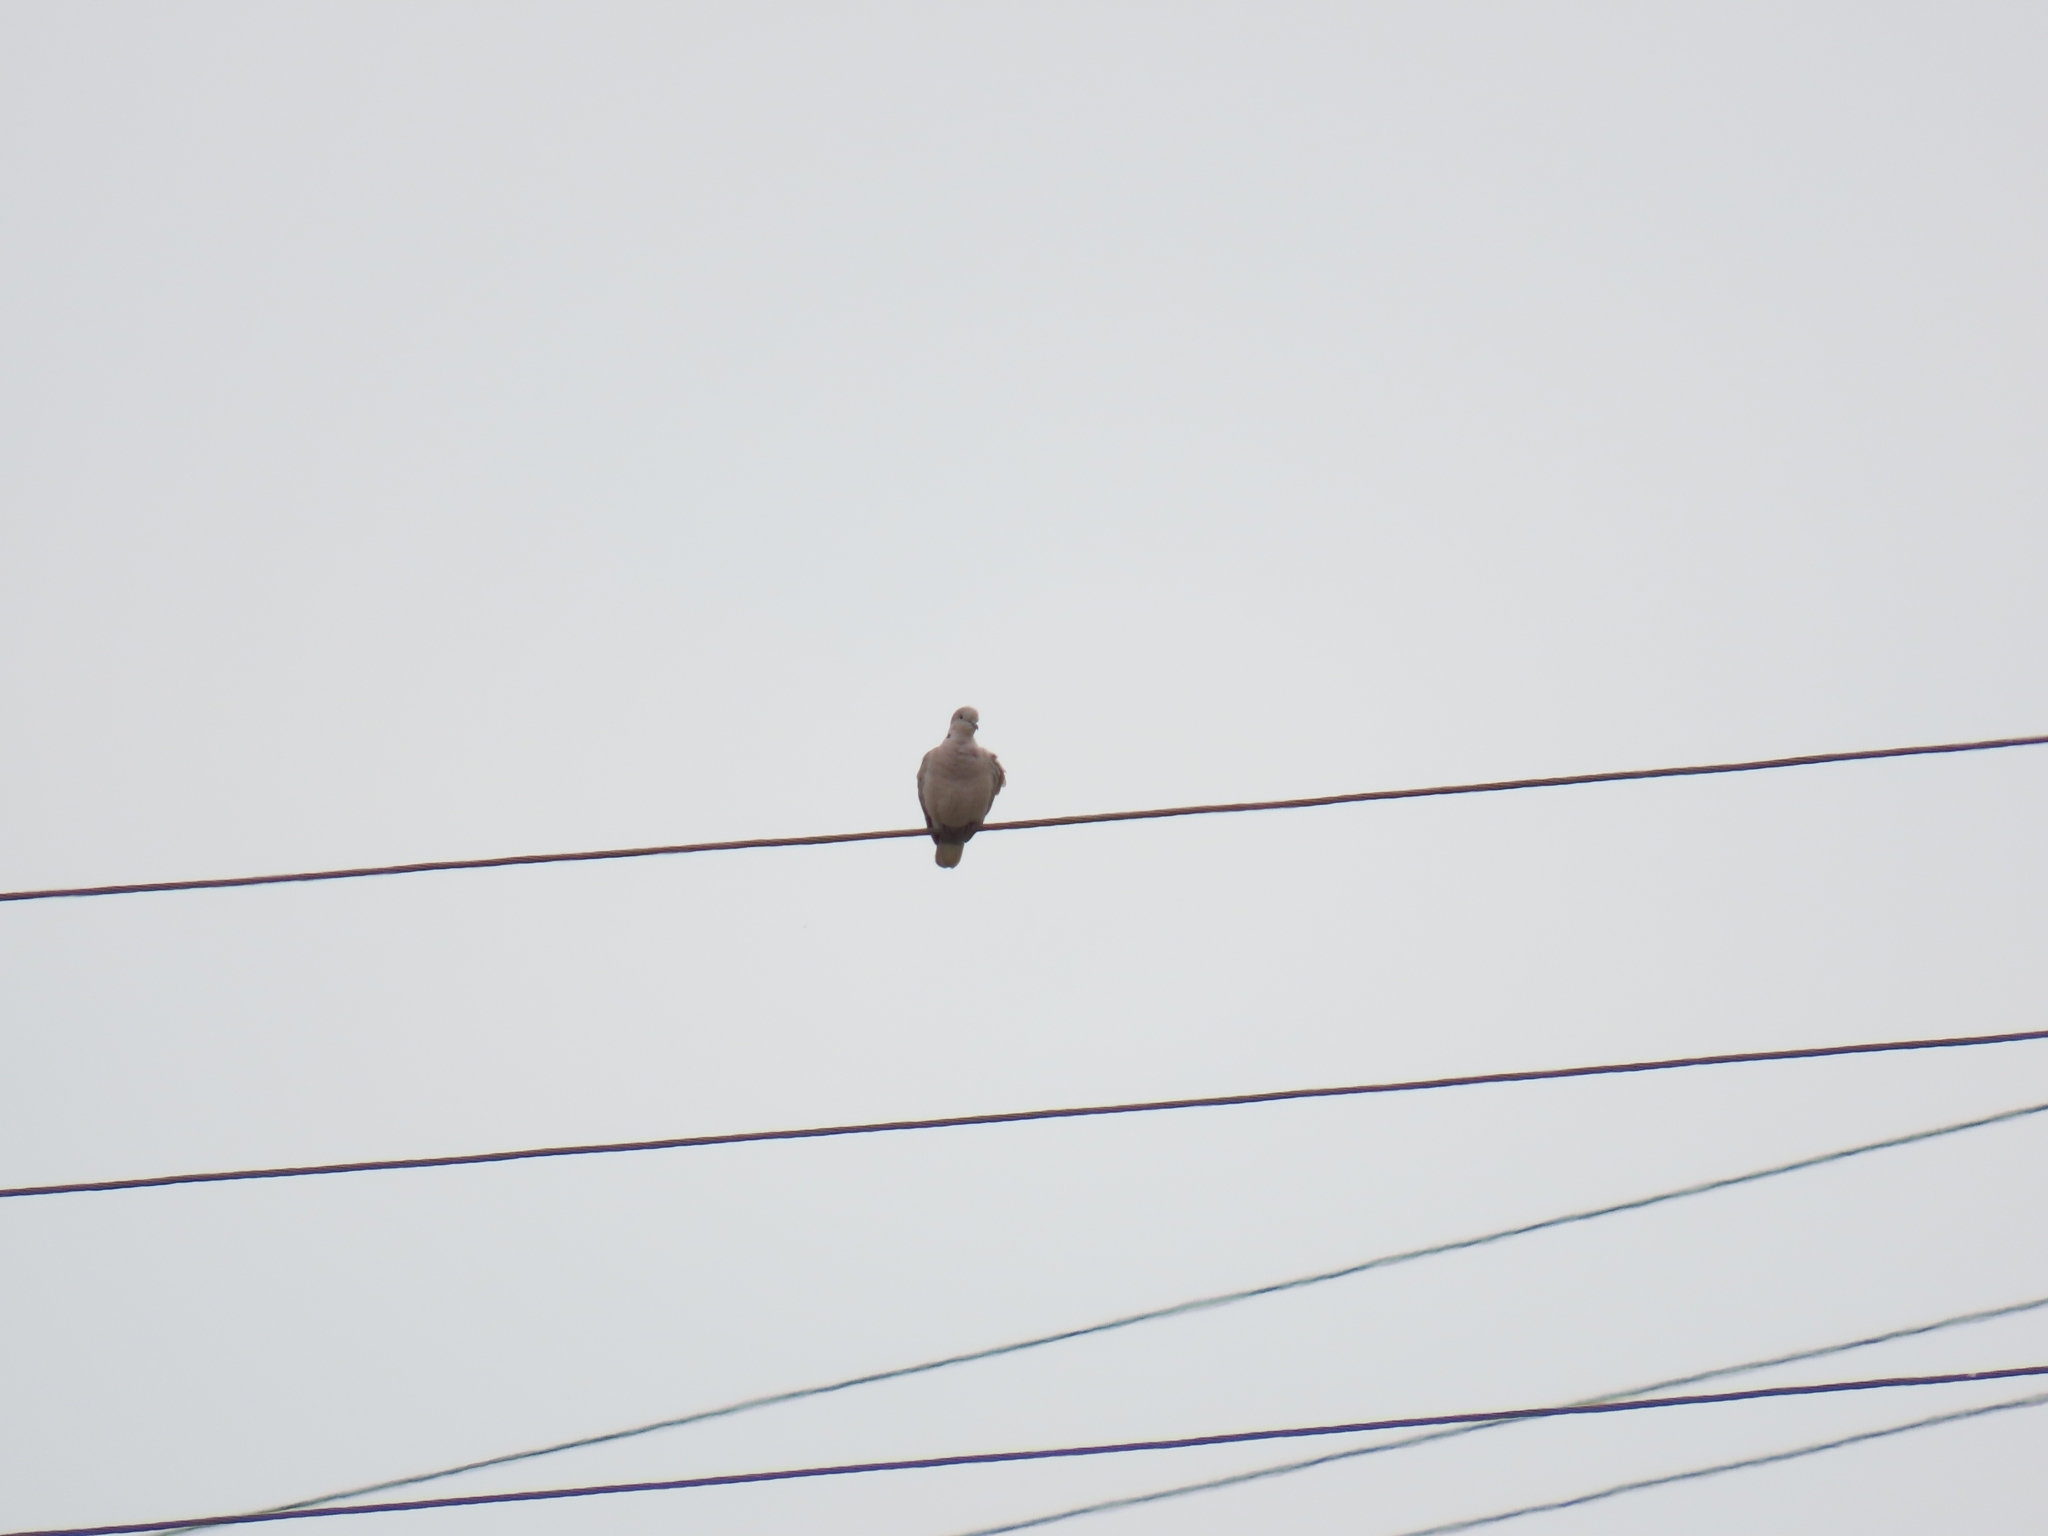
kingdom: Animalia
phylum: Chordata
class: Aves
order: Columbiformes
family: Columbidae
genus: Streptopelia
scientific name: Streptopelia decaocto
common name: Eurasian collared dove
